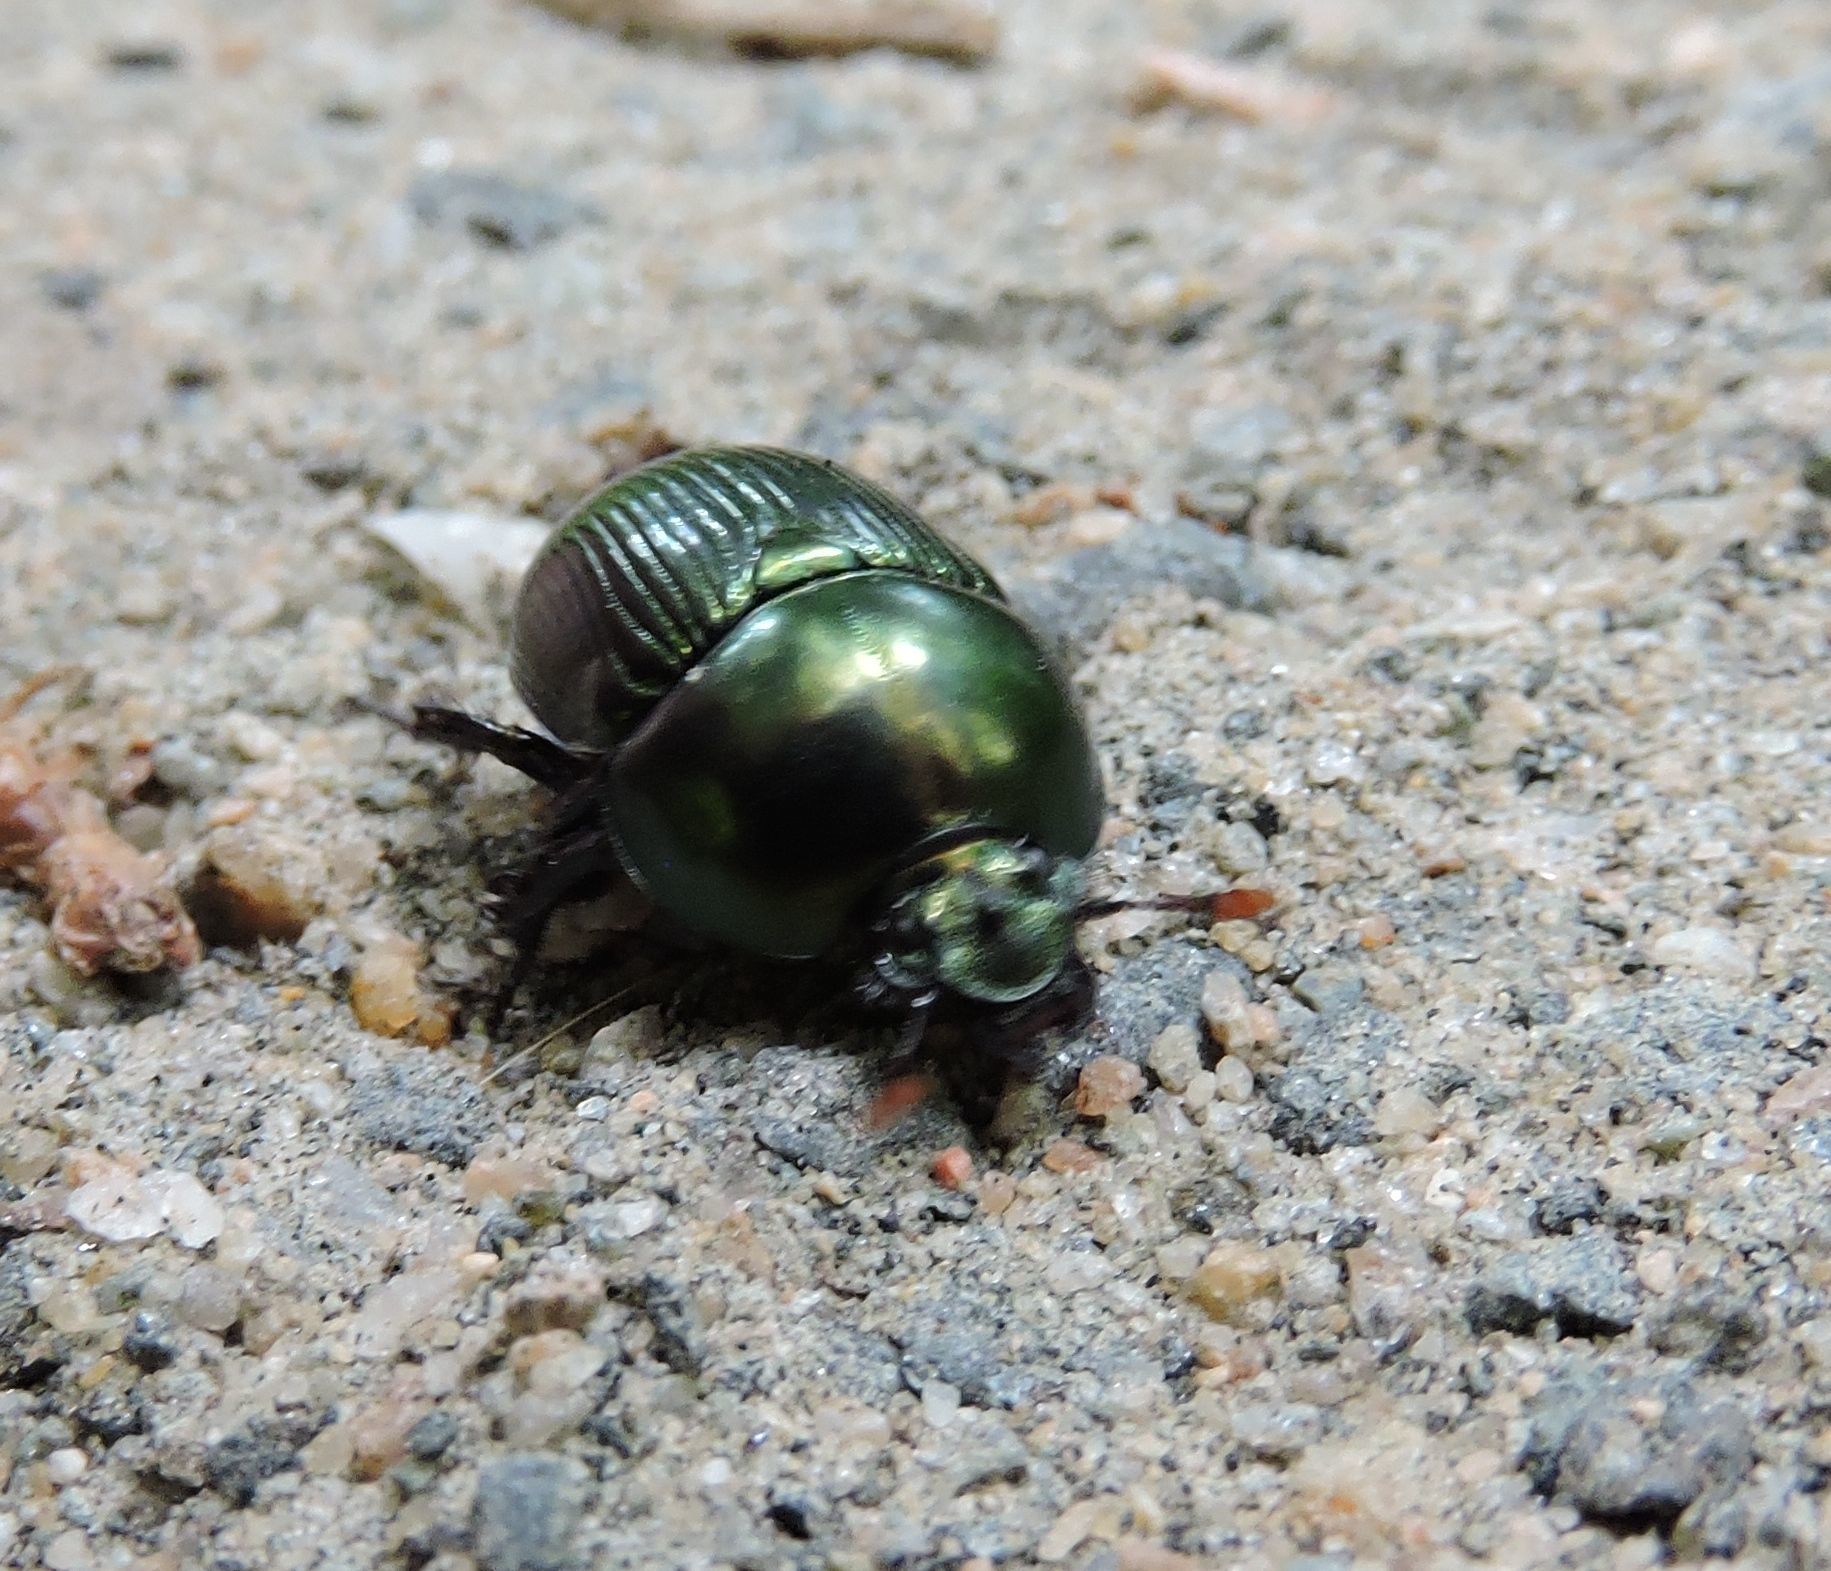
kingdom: Animalia
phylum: Arthropoda
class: Insecta
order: Coleoptera
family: Geotrupidae
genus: Geotrupes
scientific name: Geotrupes splendidus
